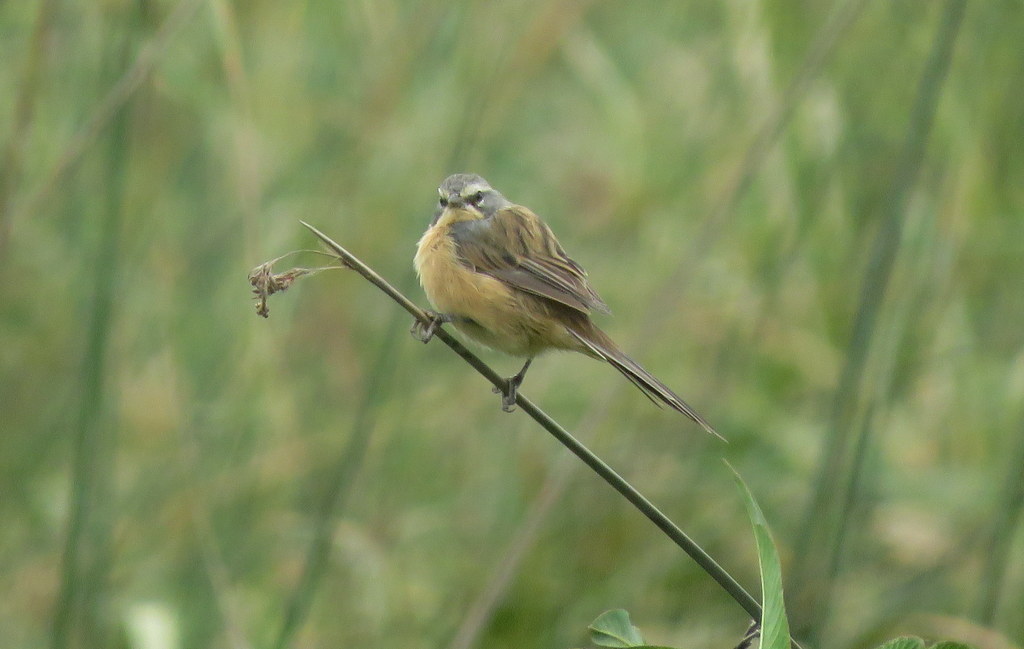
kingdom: Animalia
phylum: Chordata
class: Aves
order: Passeriformes
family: Thraupidae
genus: Donacospiza
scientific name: Donacospiza albifrons
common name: Long-tailed reed finch
